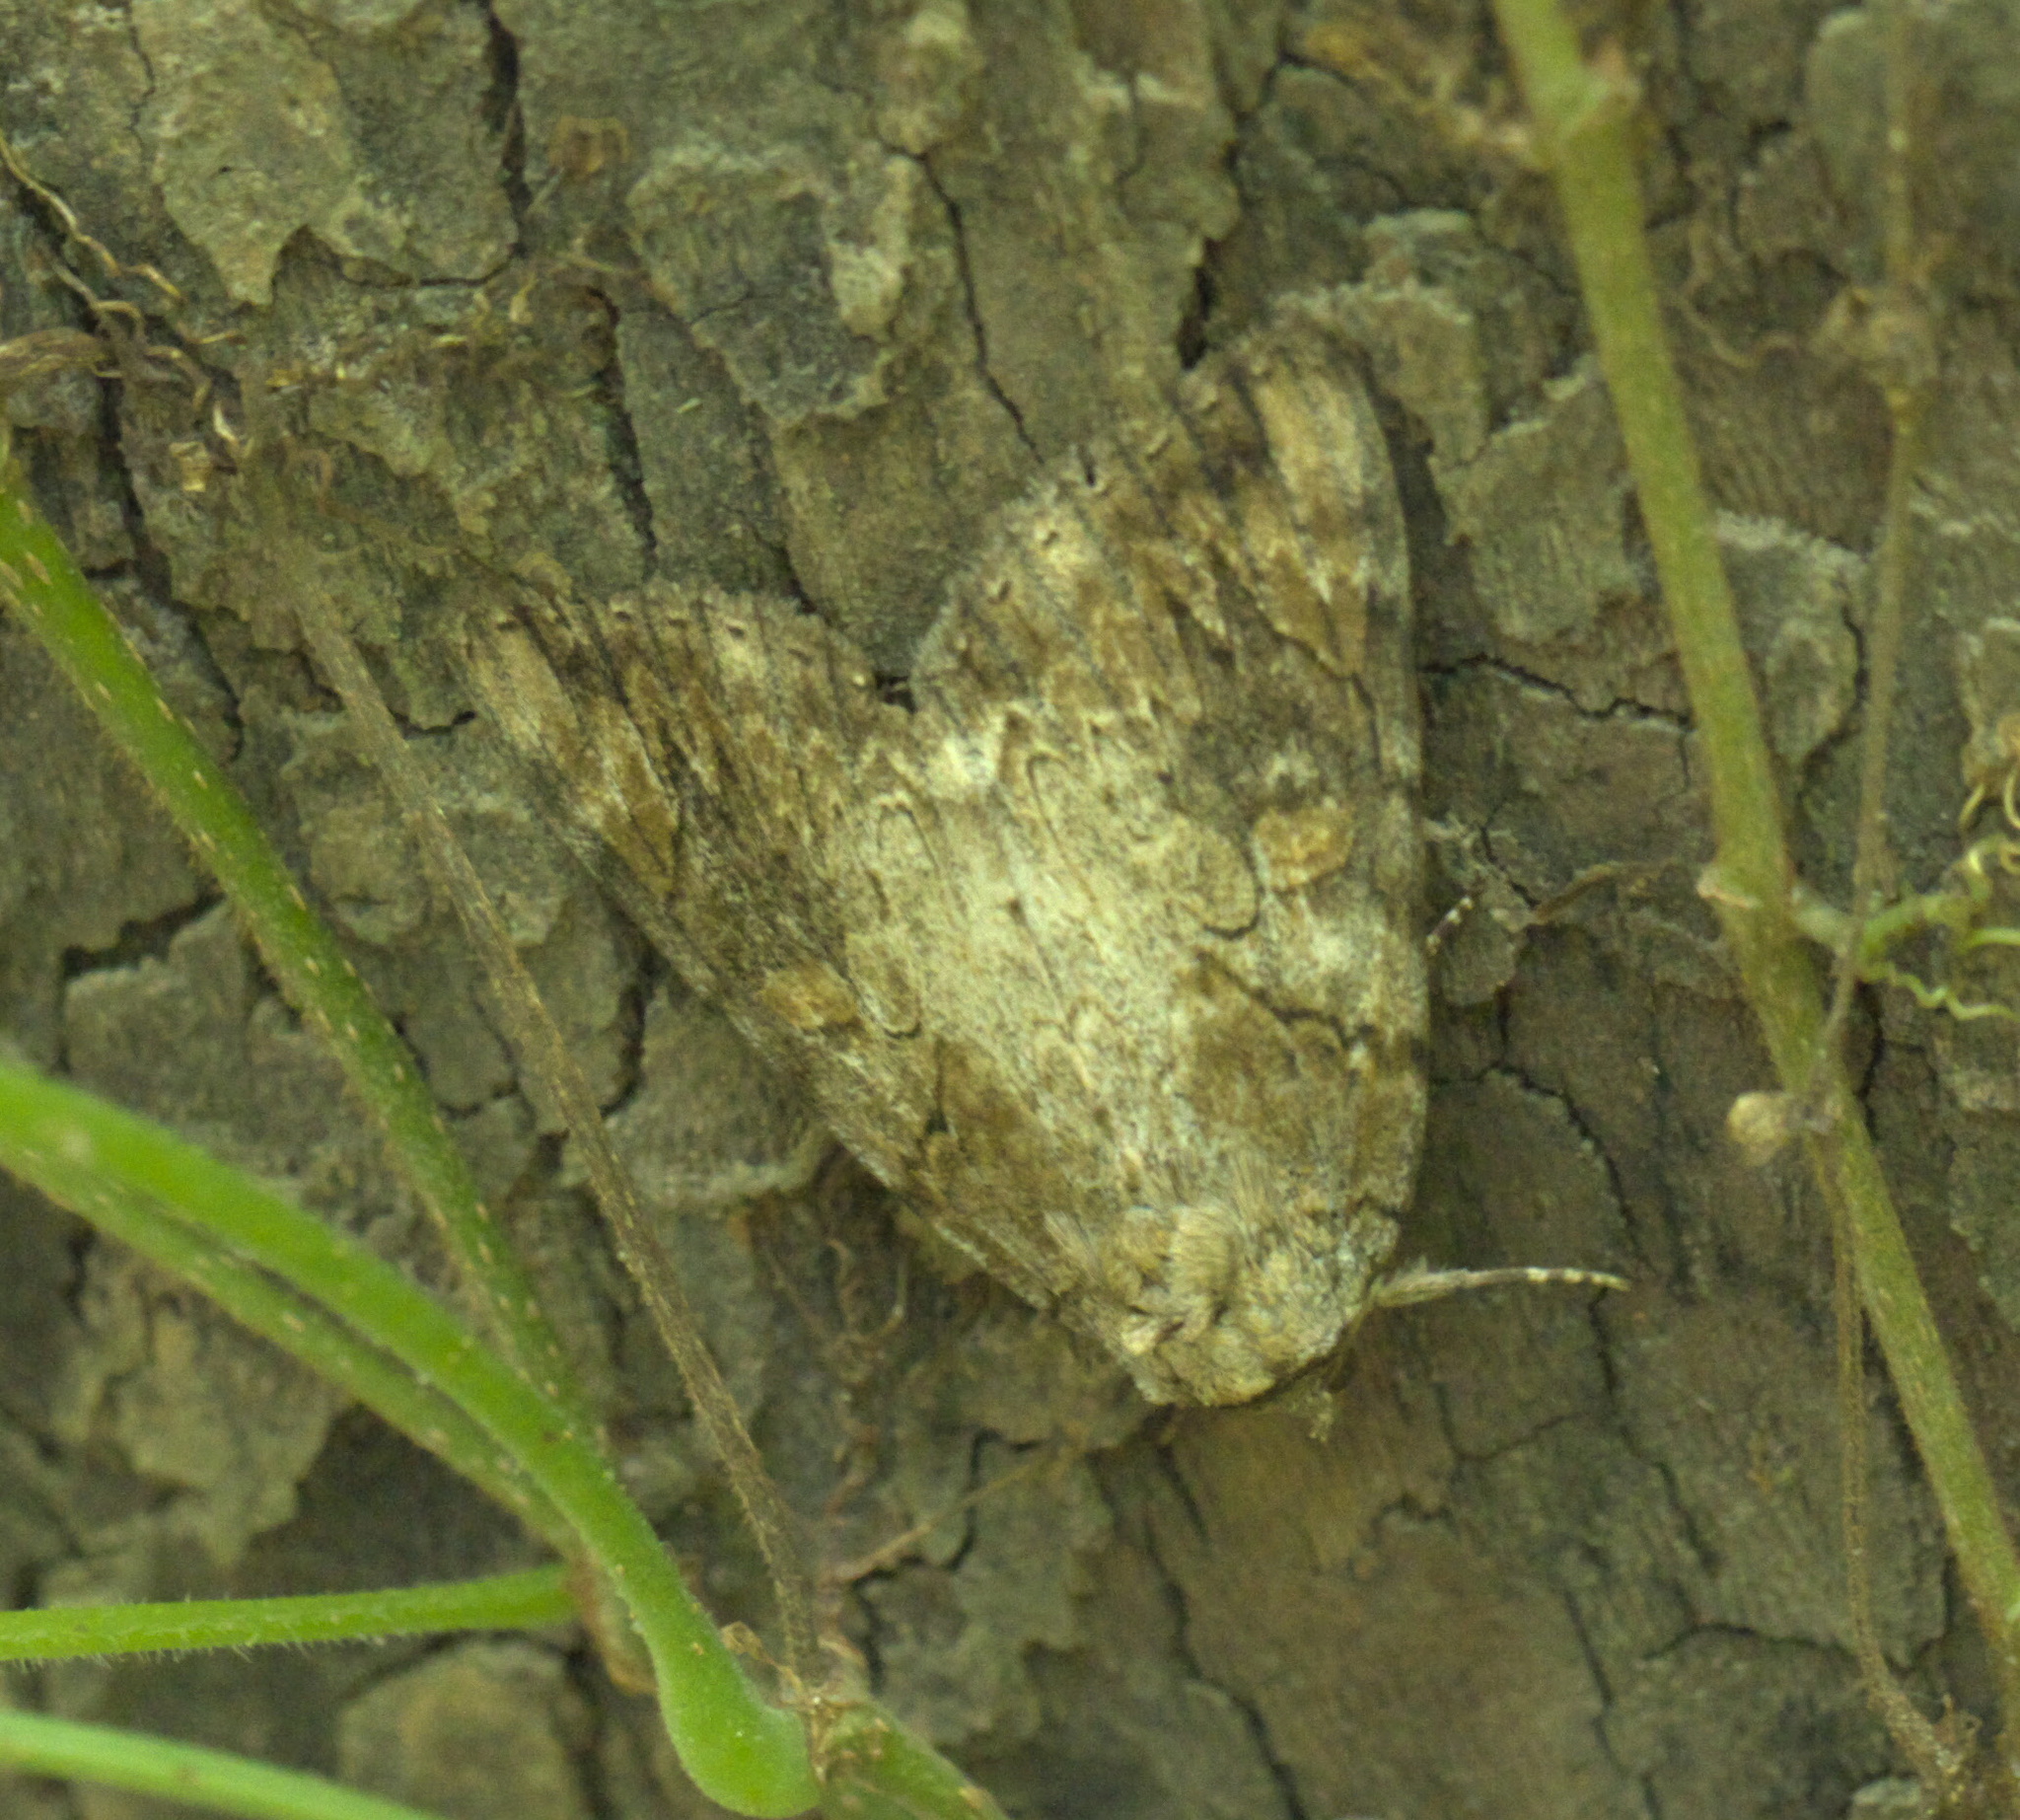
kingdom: Animalia
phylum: Arthropoda
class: Insecta
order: Lepidoptera
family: Erebidae
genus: Catocala
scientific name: Catocala atocala
